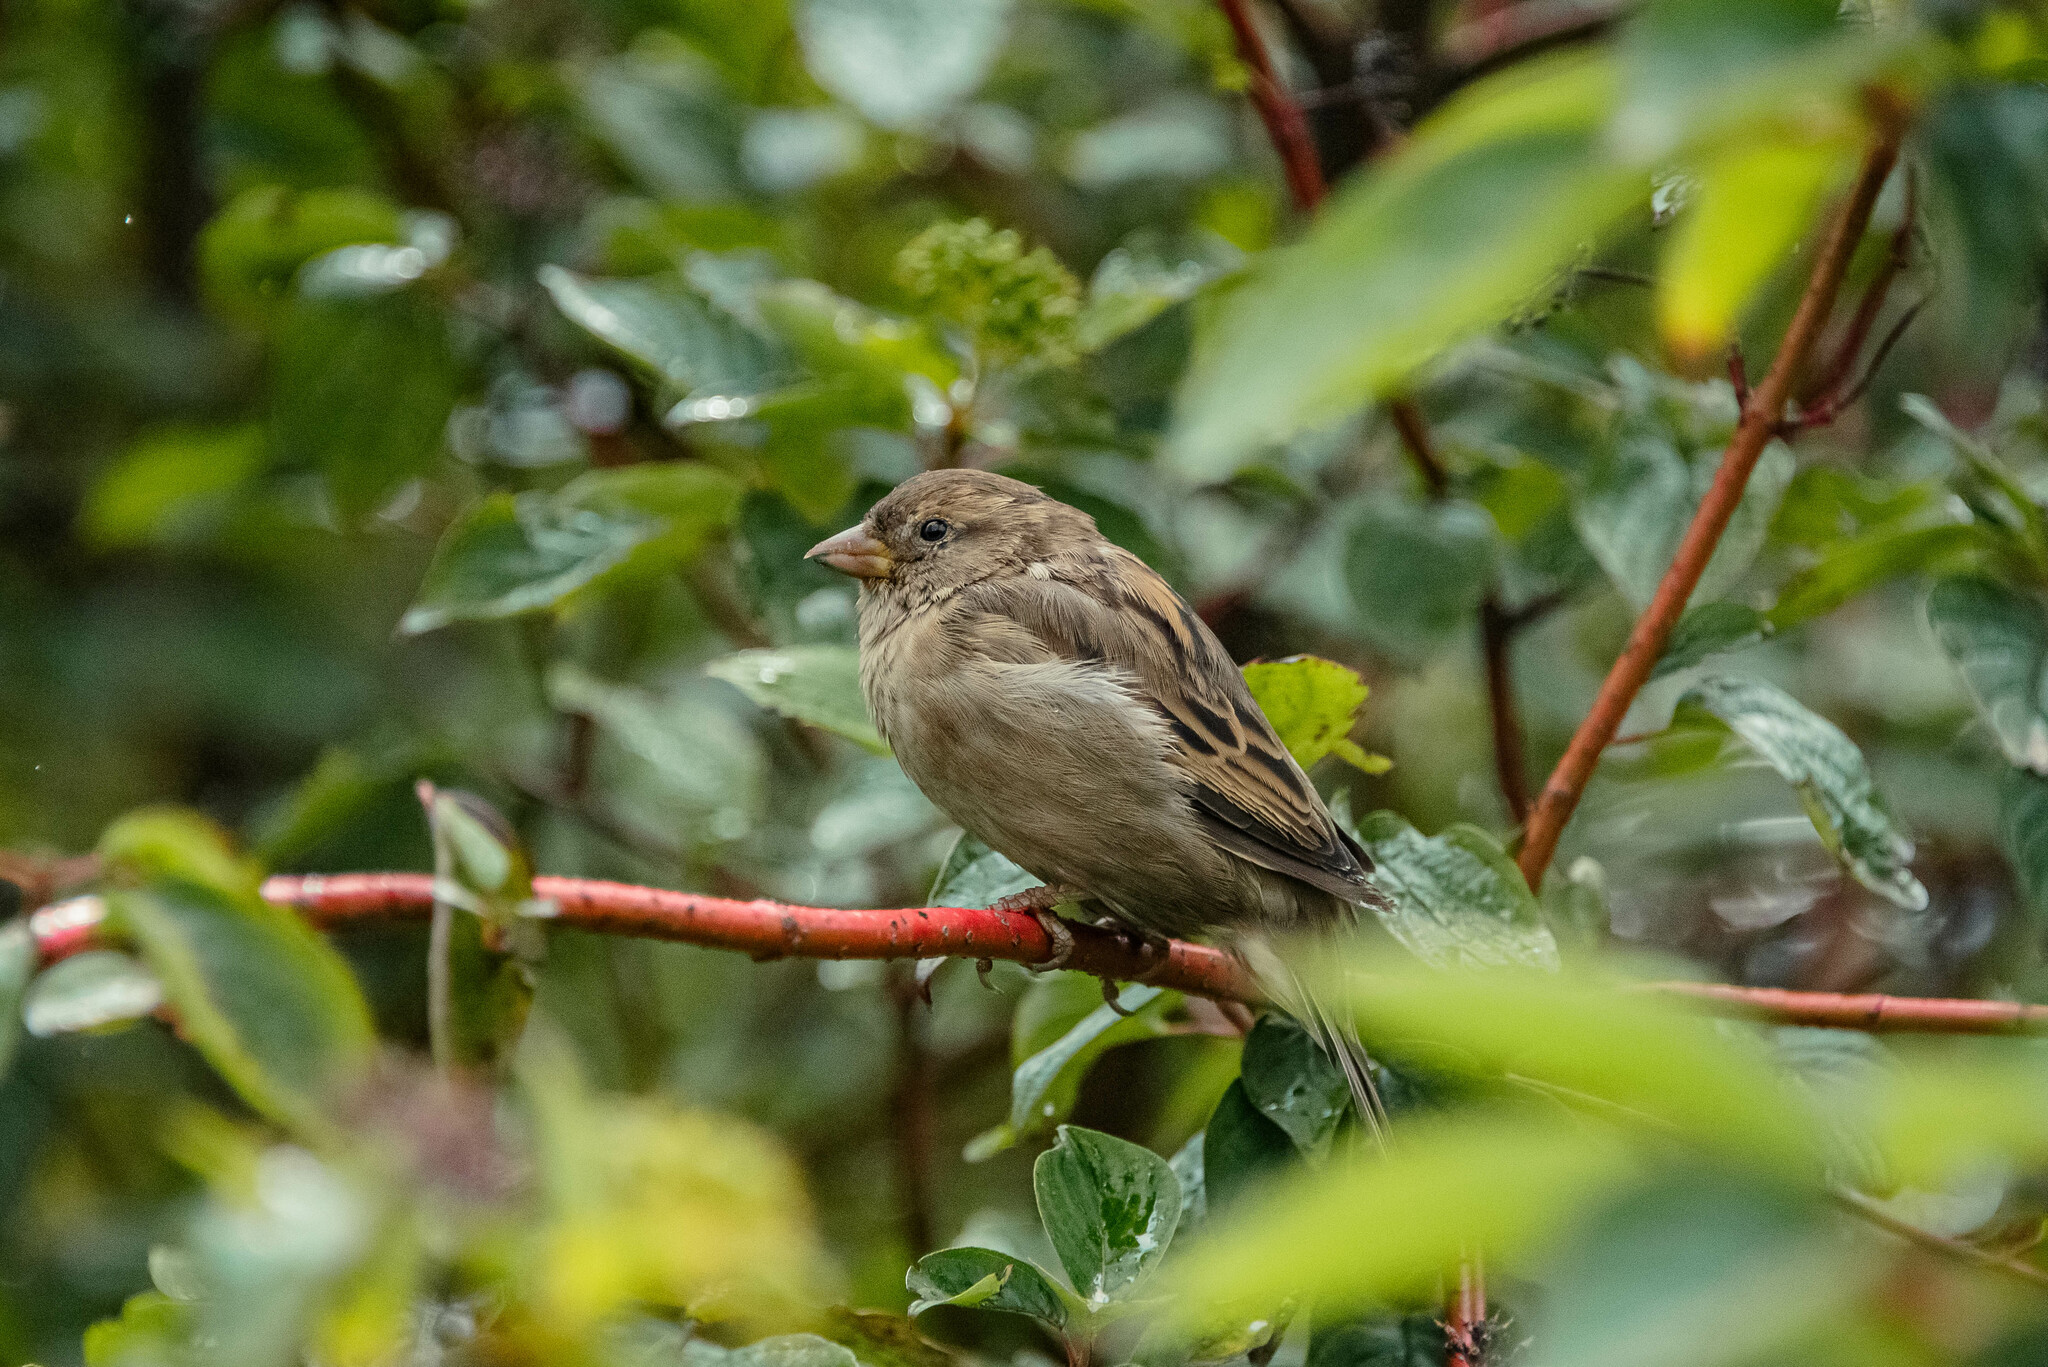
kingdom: Animalia
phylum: Chordata
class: Aves
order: Passeriformes
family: Passeridae
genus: Passer
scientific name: Passer domesticus
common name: House sparrow
